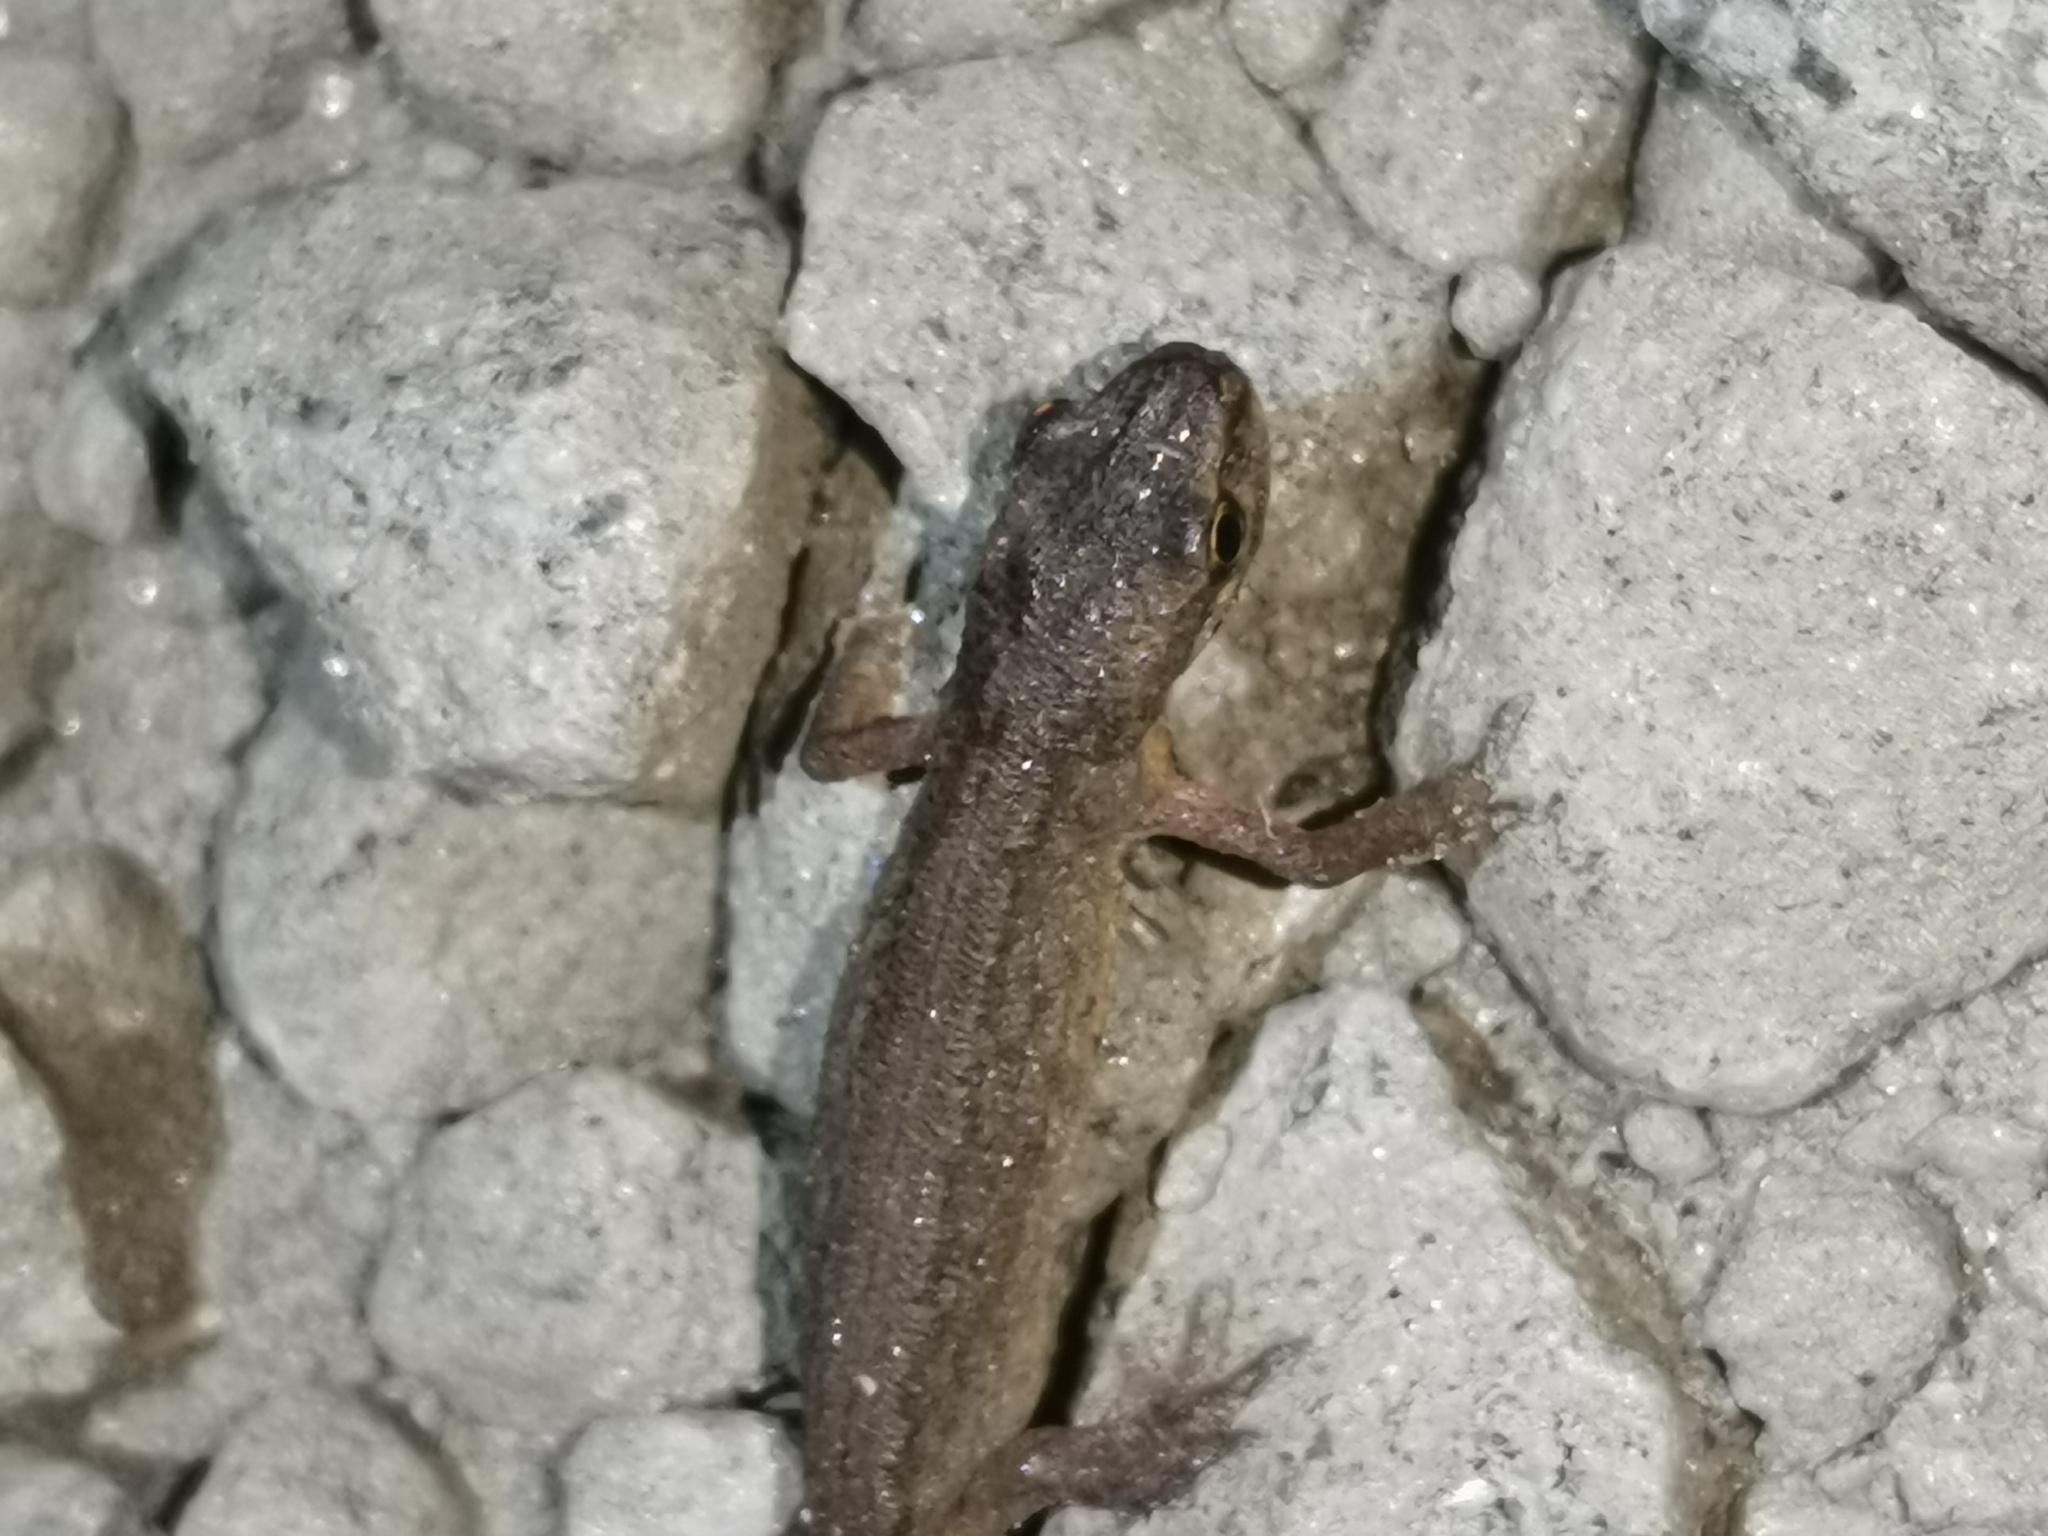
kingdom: Animalia
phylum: Chordata
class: Amphibia
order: Caudata
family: Salamandridae
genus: Lissotriton
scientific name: Lissotriton vulgaris
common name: Smooth newt
